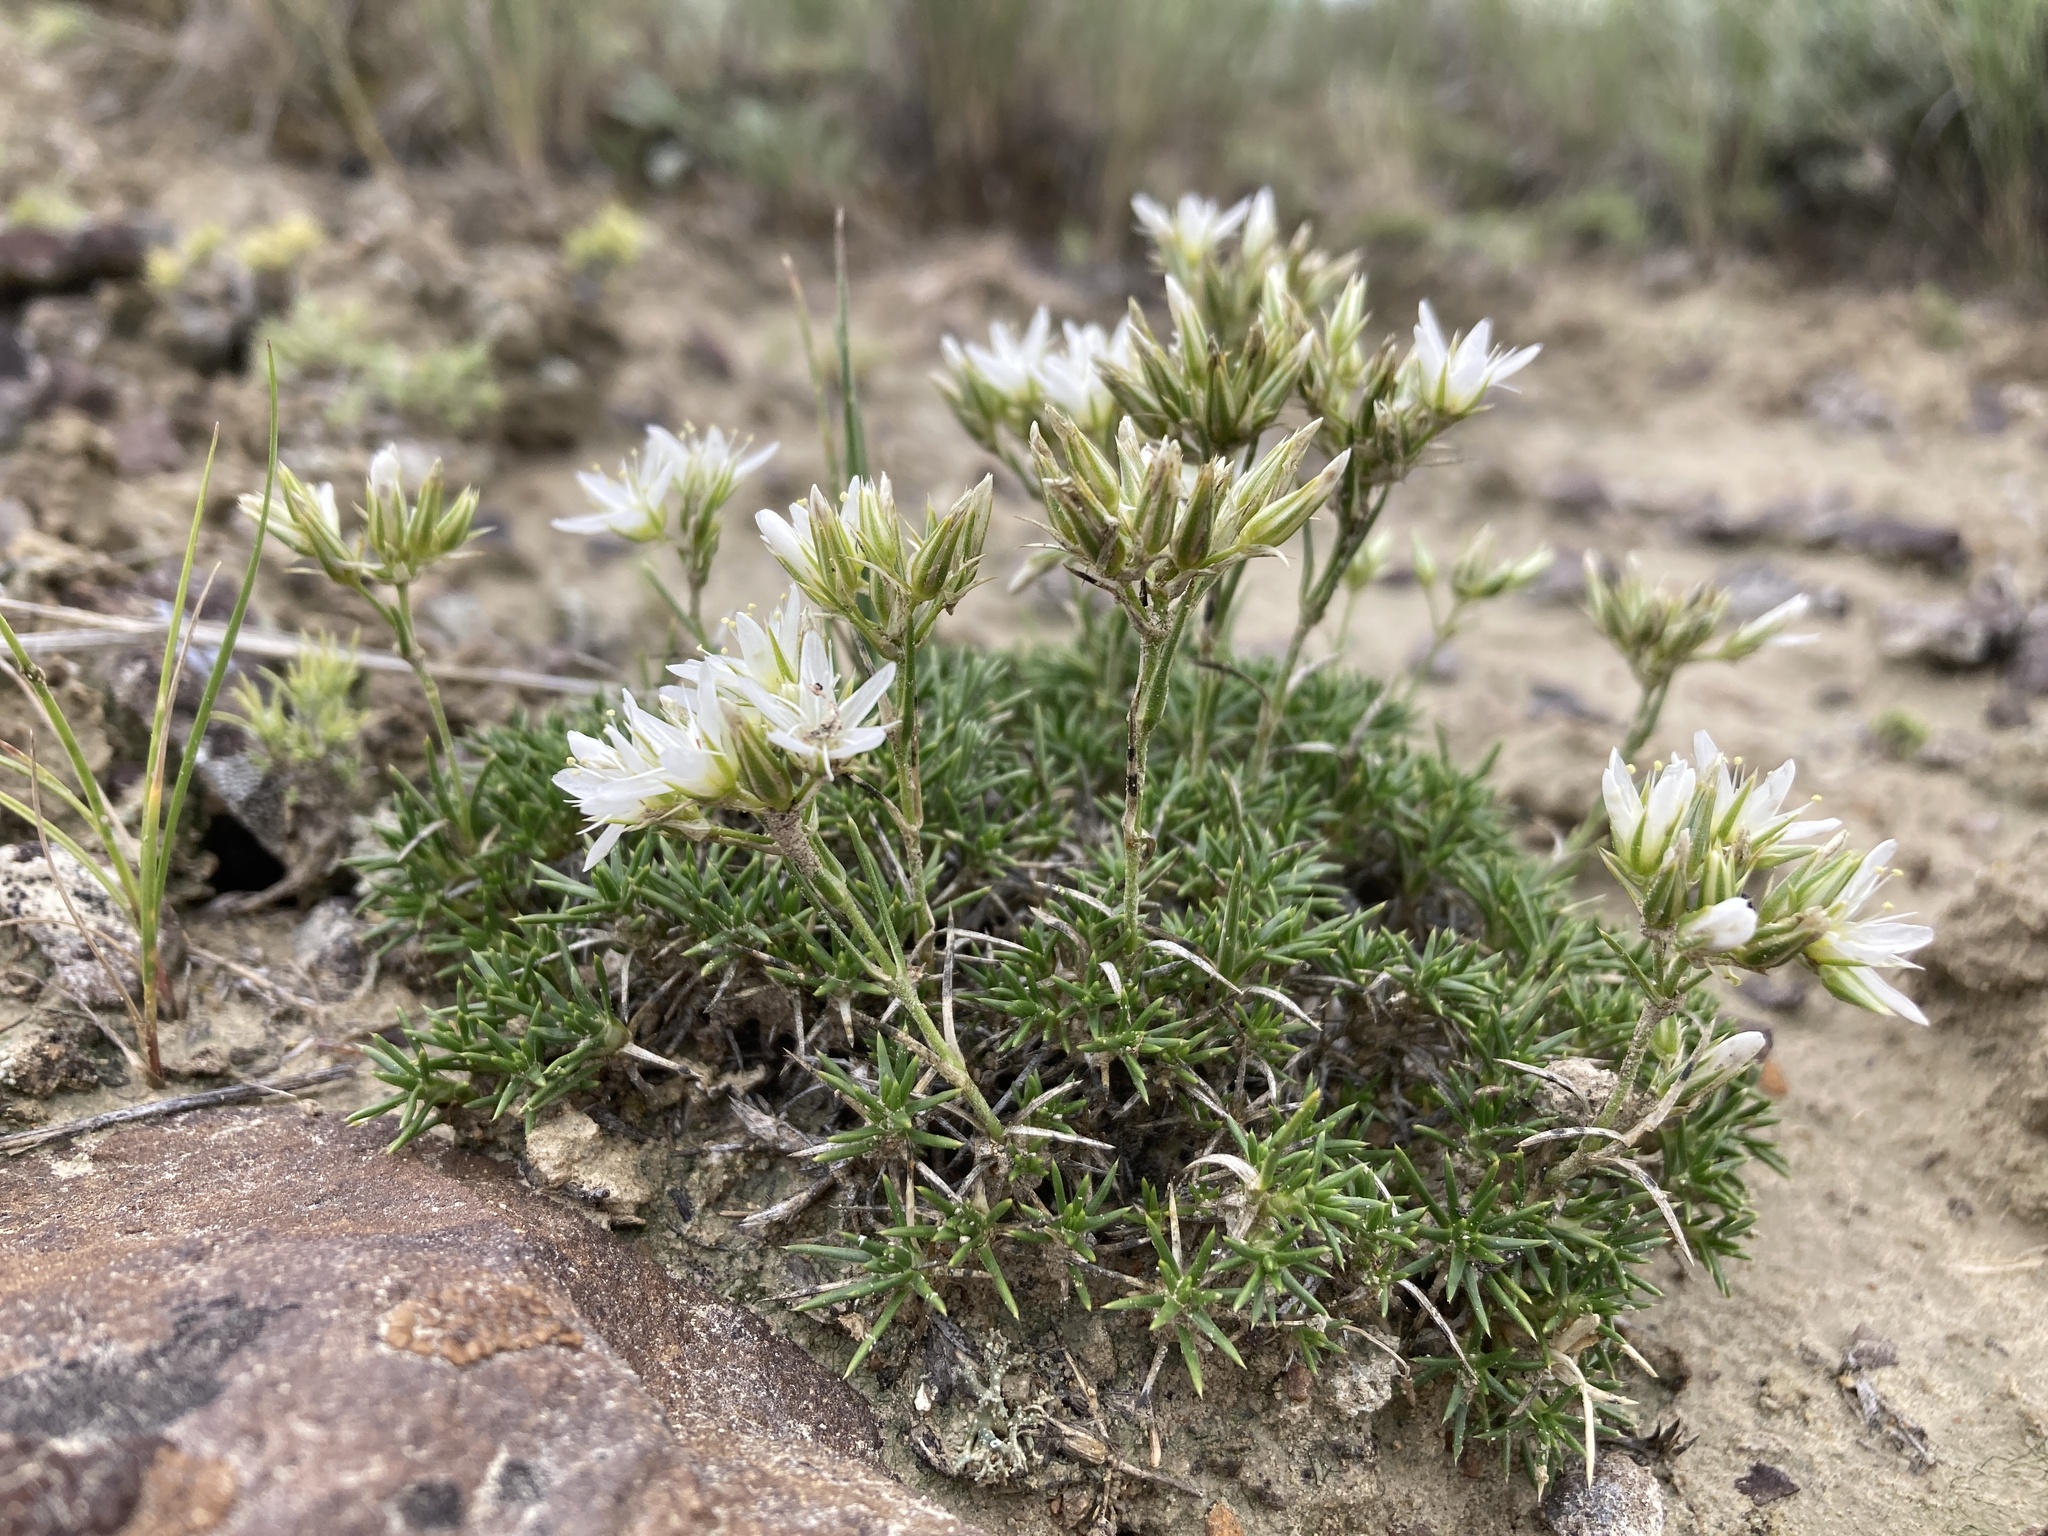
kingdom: Plantae
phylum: Tracheophyta
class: Magnoliopsida
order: Caryophyllales
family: Caryophyllaceae
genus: Eremogone
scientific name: Eremogone hookeri
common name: Hooker's sandwort
